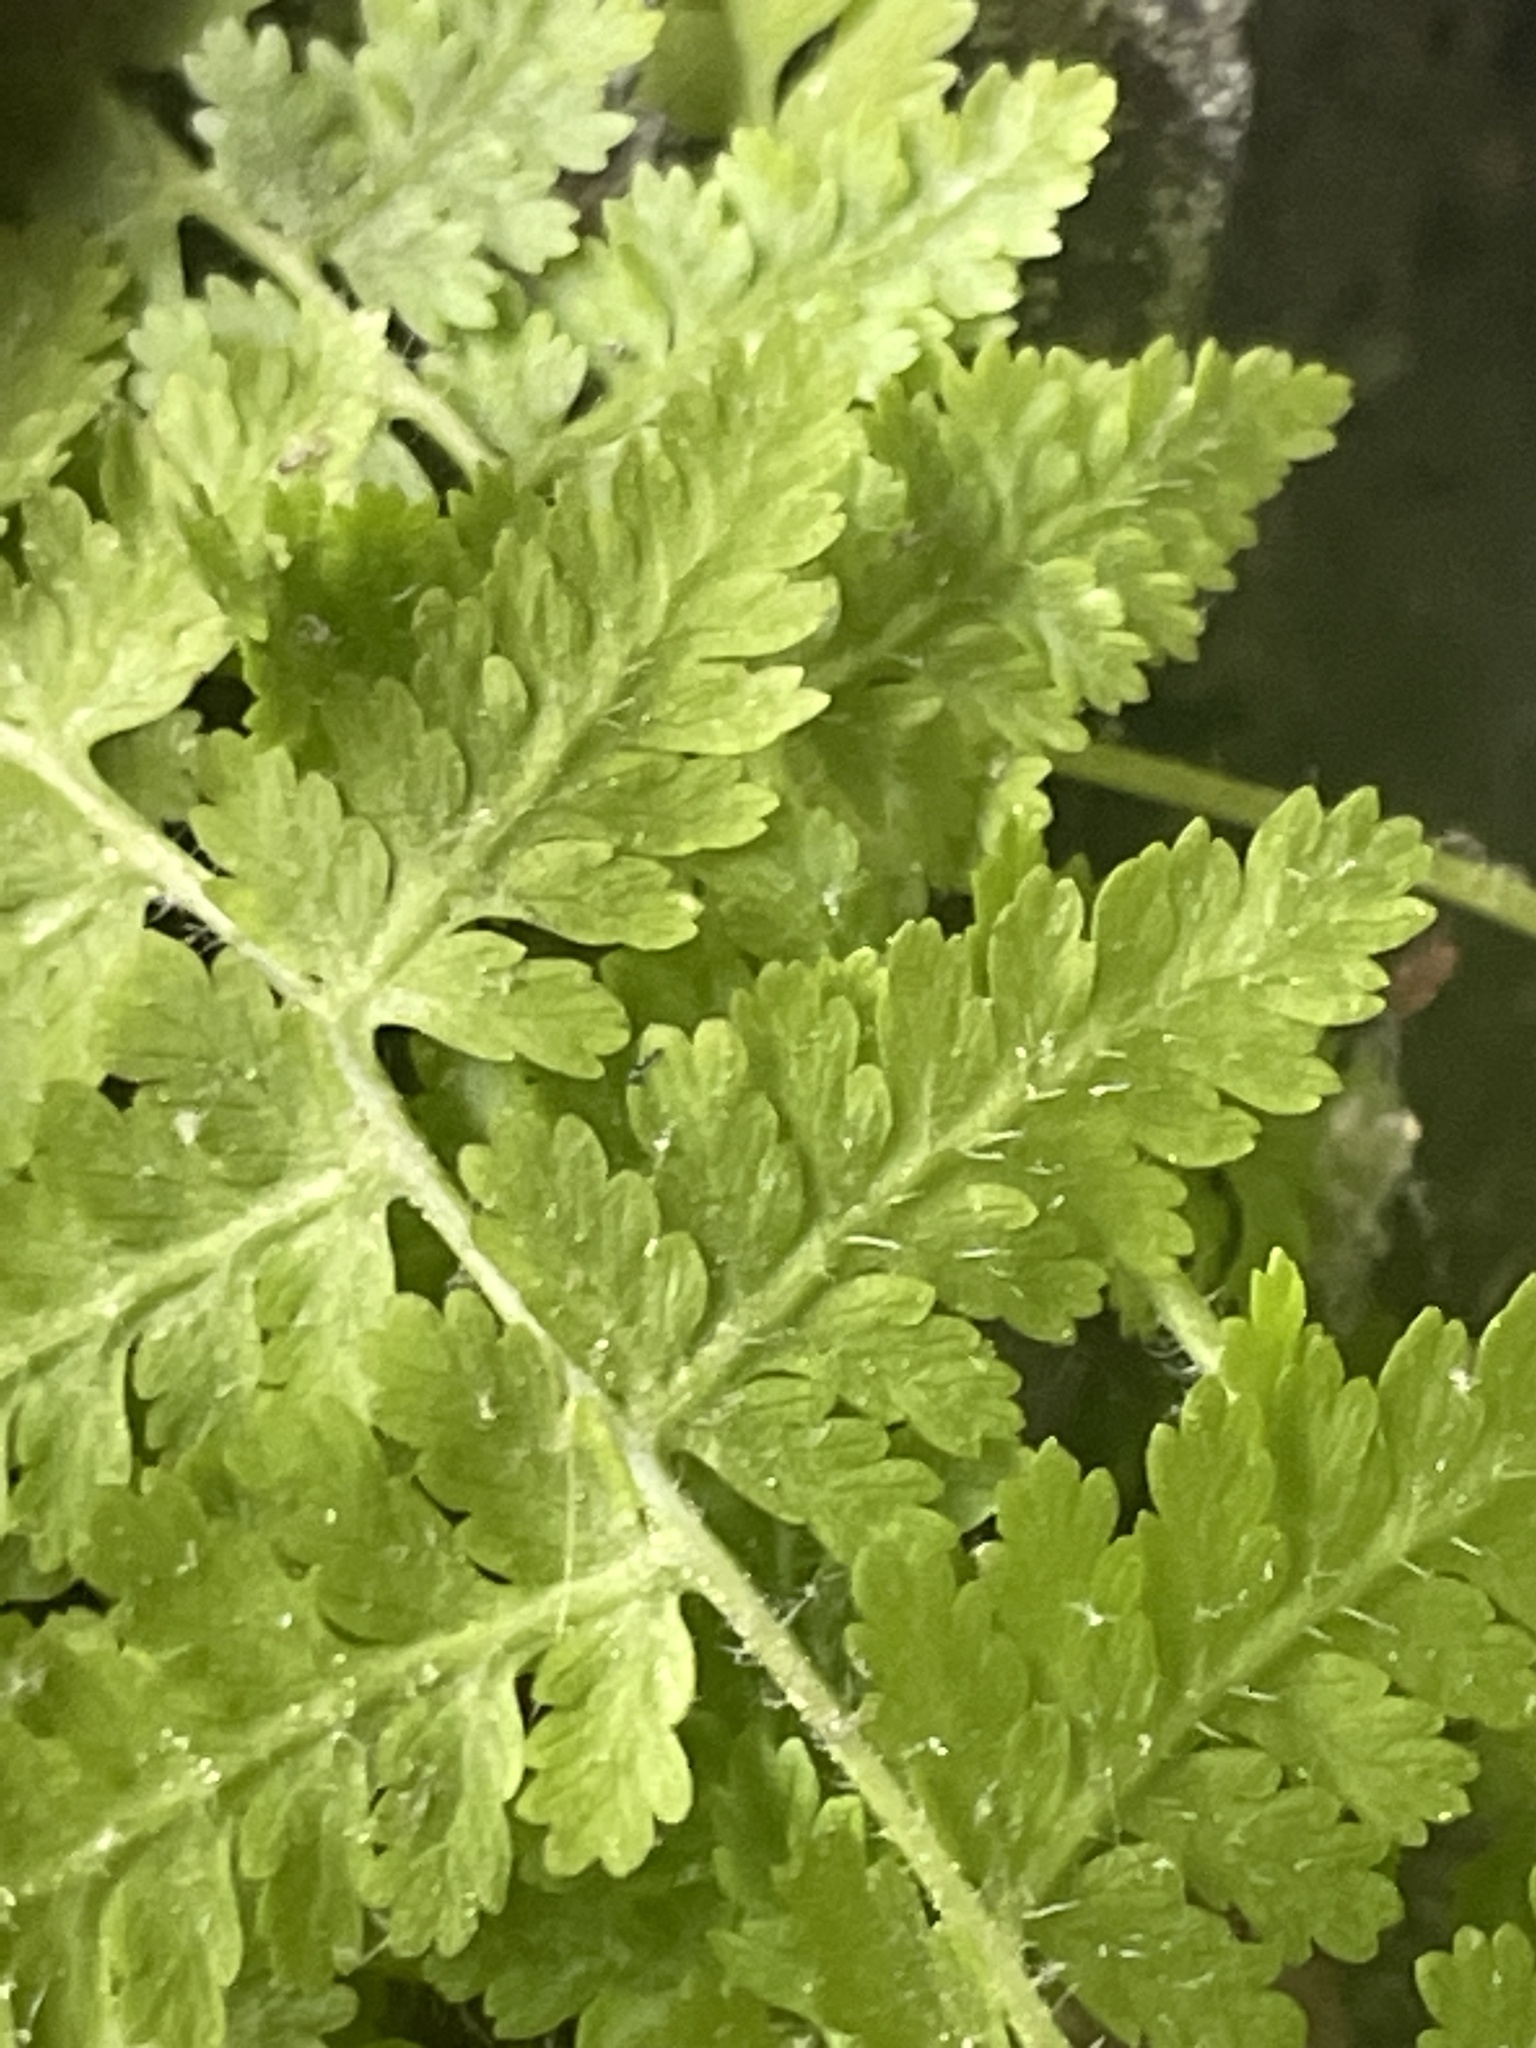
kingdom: Plantae
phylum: Tracheophyta
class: Polypodiopsida
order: Polypodiales
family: Dennstaedtiaceae
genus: Sitobolium
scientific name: Sitobolium punctilobum
